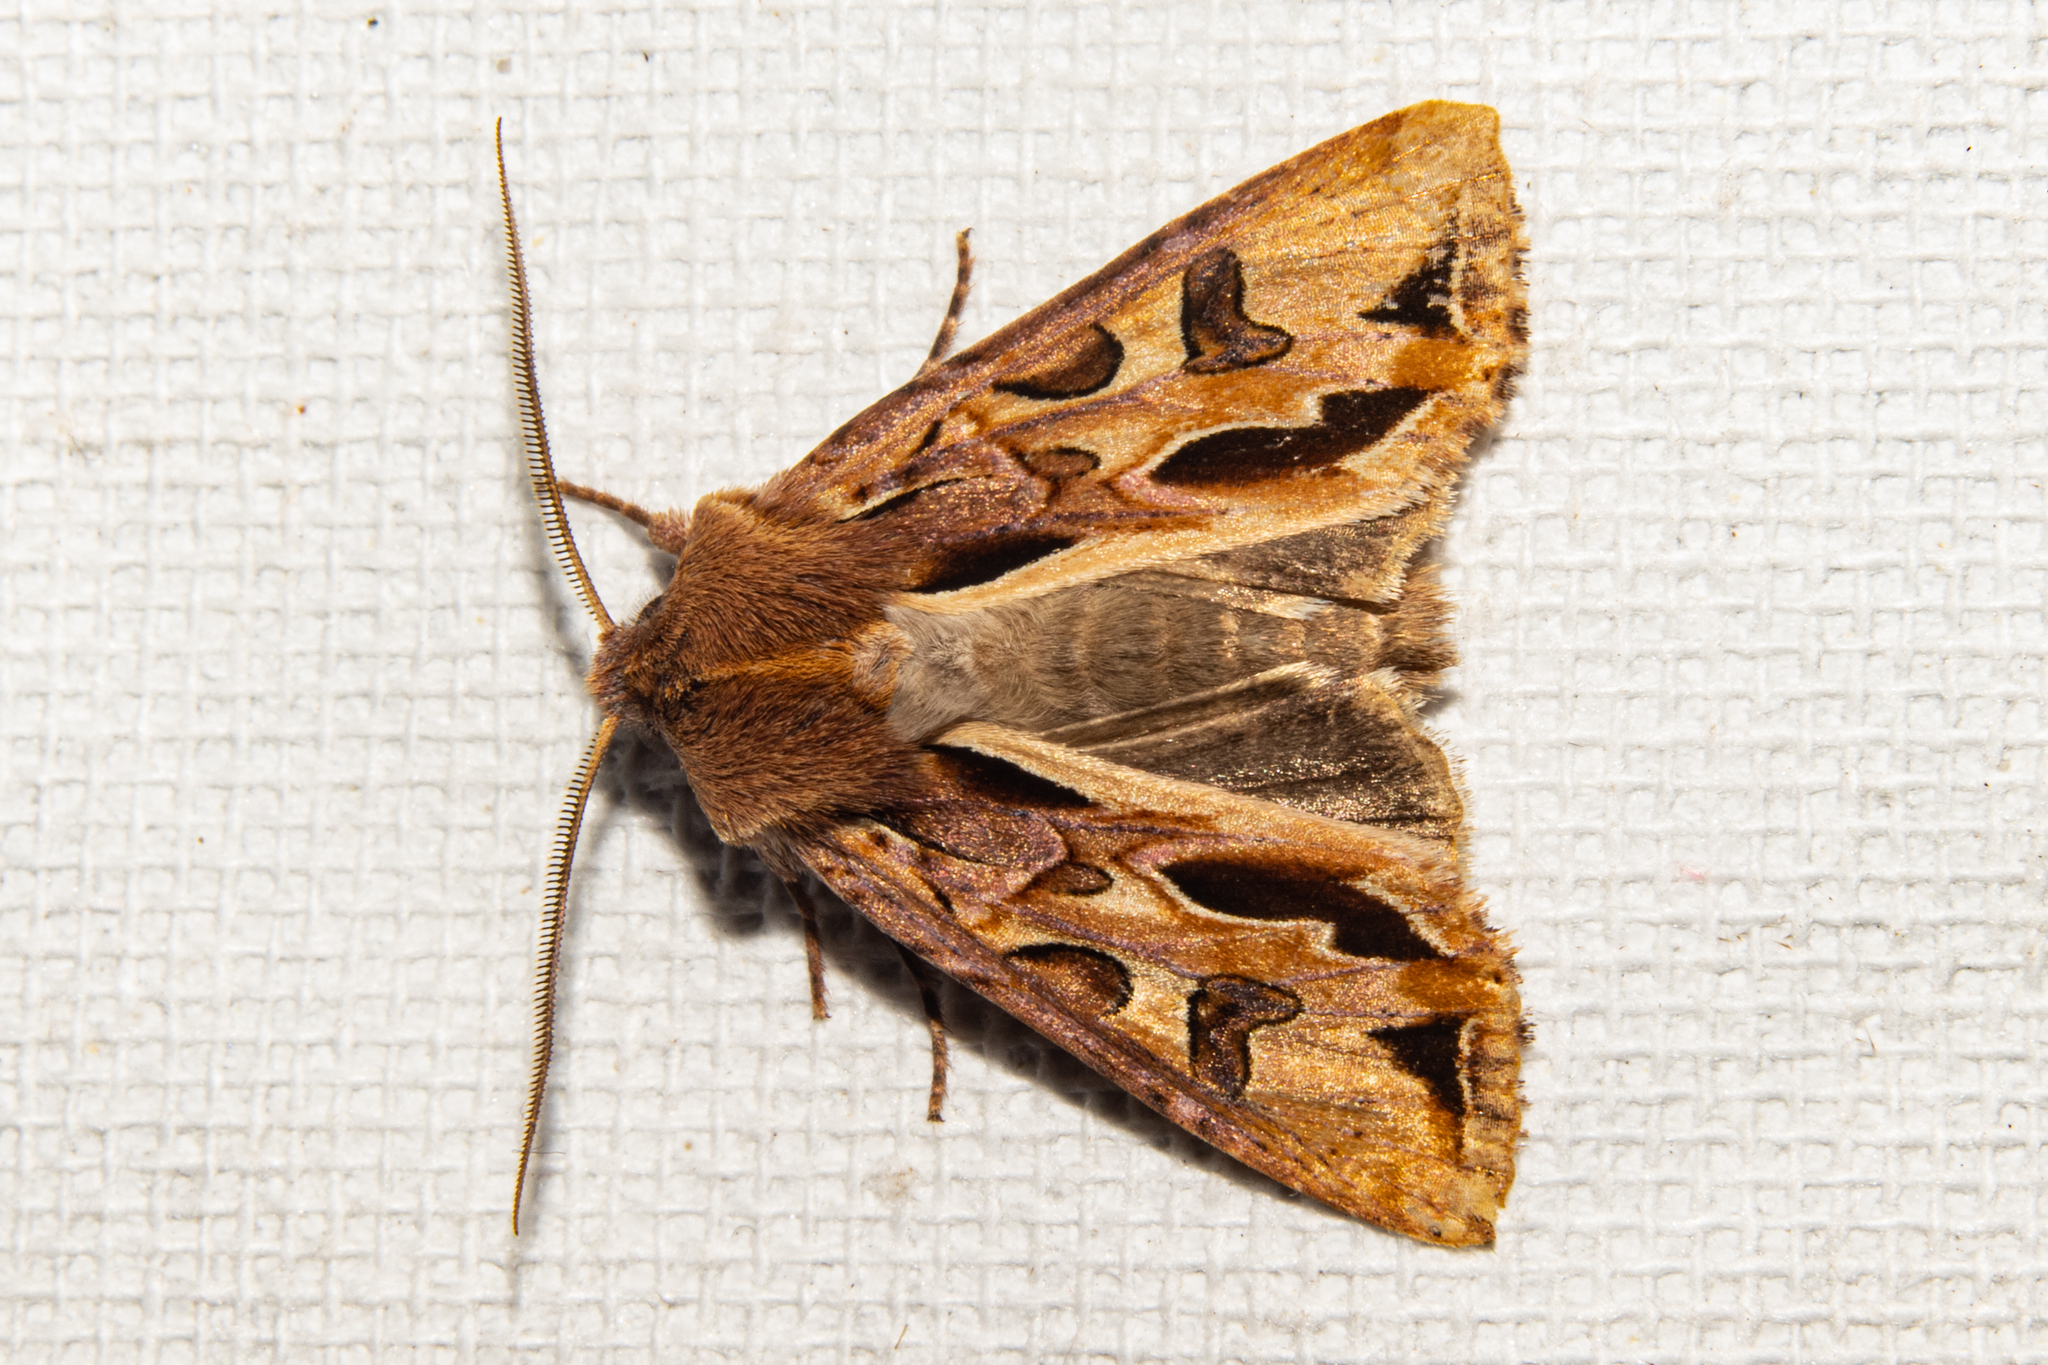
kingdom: Animalia
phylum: Arthropoda
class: Insecta
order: Lepidoptera
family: Noctuidae
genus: Ichneutica
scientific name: Ichneutica
